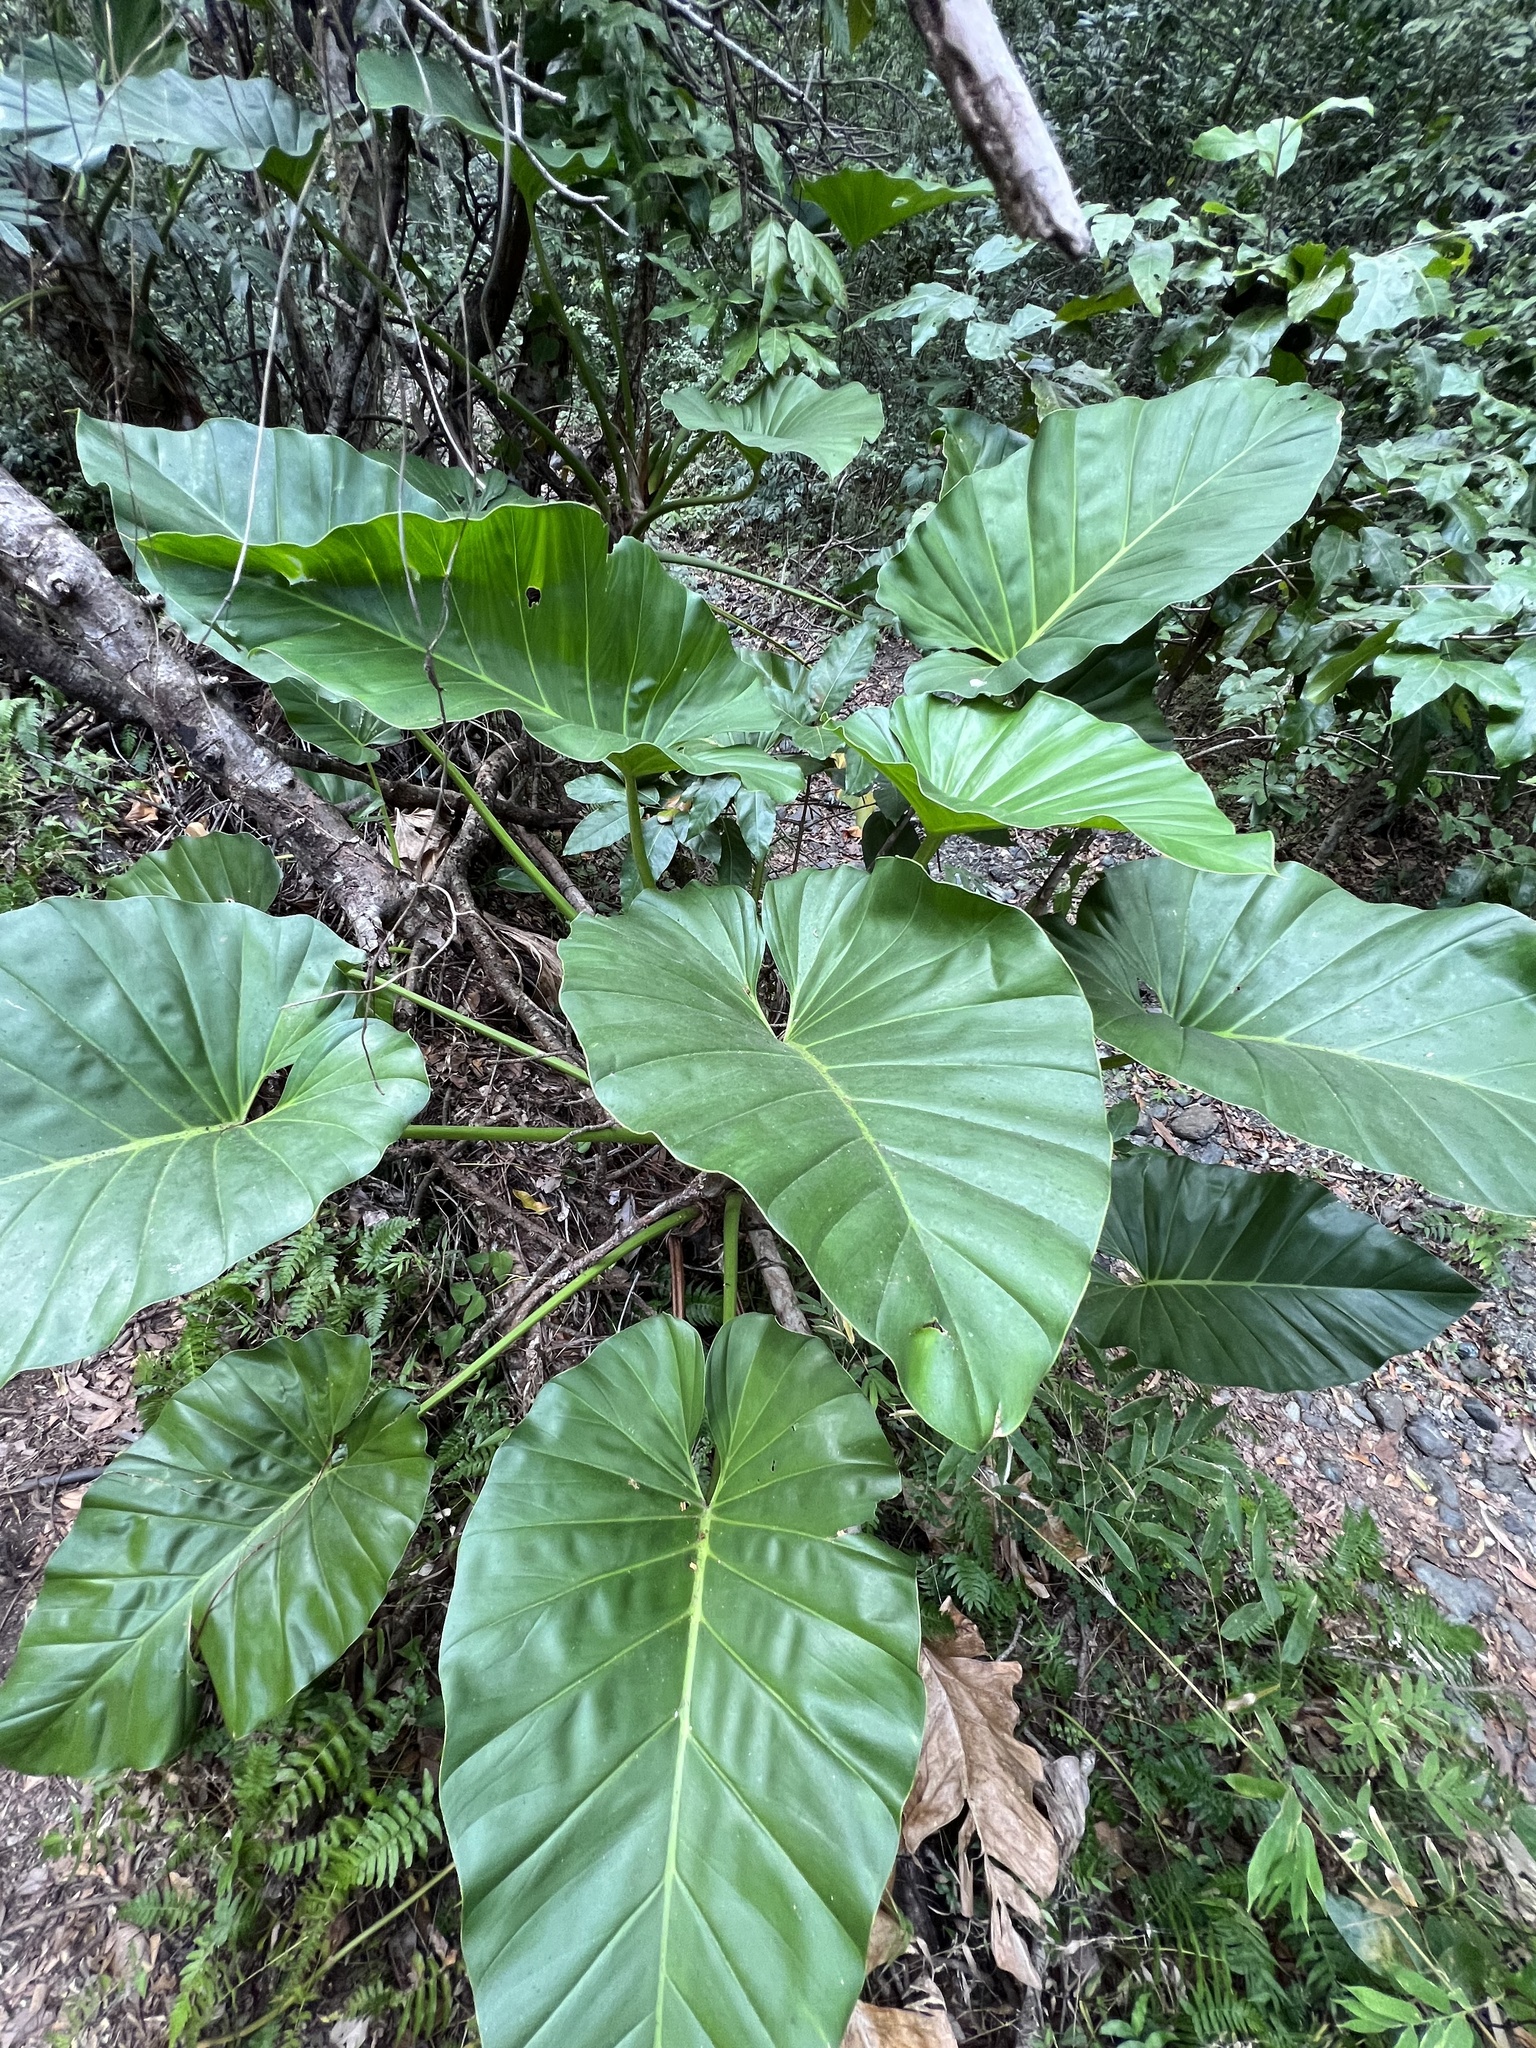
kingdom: Plantae
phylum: Tracheophyta
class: Liliopsida
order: Alismatales
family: Araceae
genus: Philodendron
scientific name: Philodendron giganteum
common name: Giant philodendron
